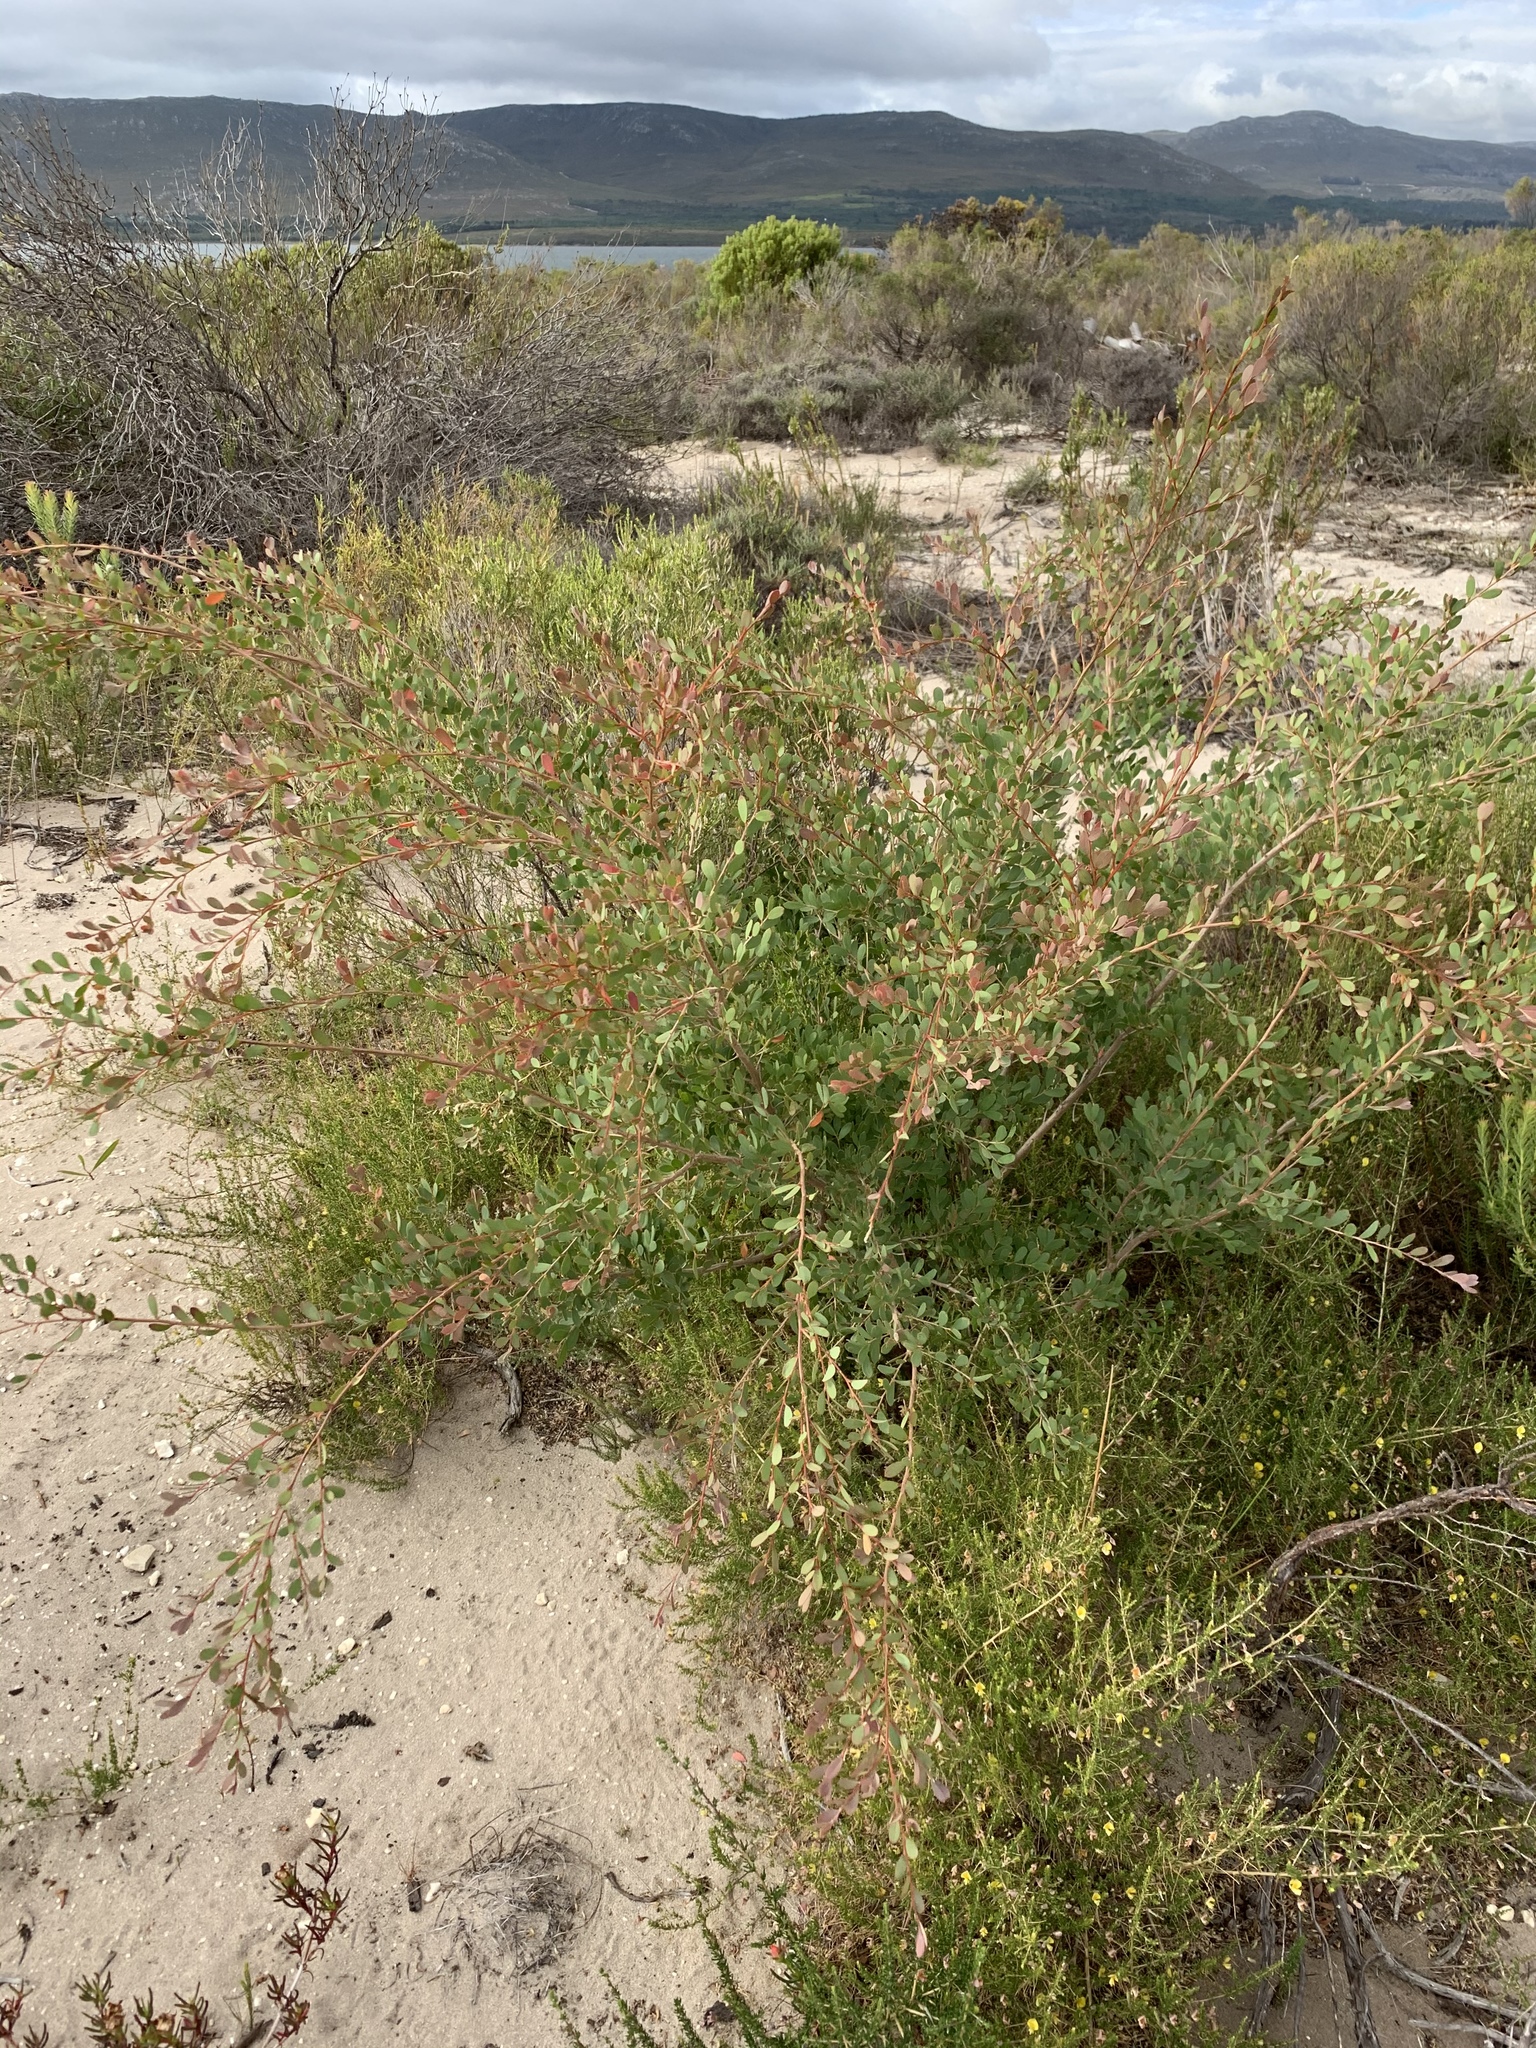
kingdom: Plantae
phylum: Tracheophyta
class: Magnoliopsida
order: Myrtales
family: Myrtaceae
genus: Leptospermum
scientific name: Leptospermum laevigatum
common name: Australian teatree
